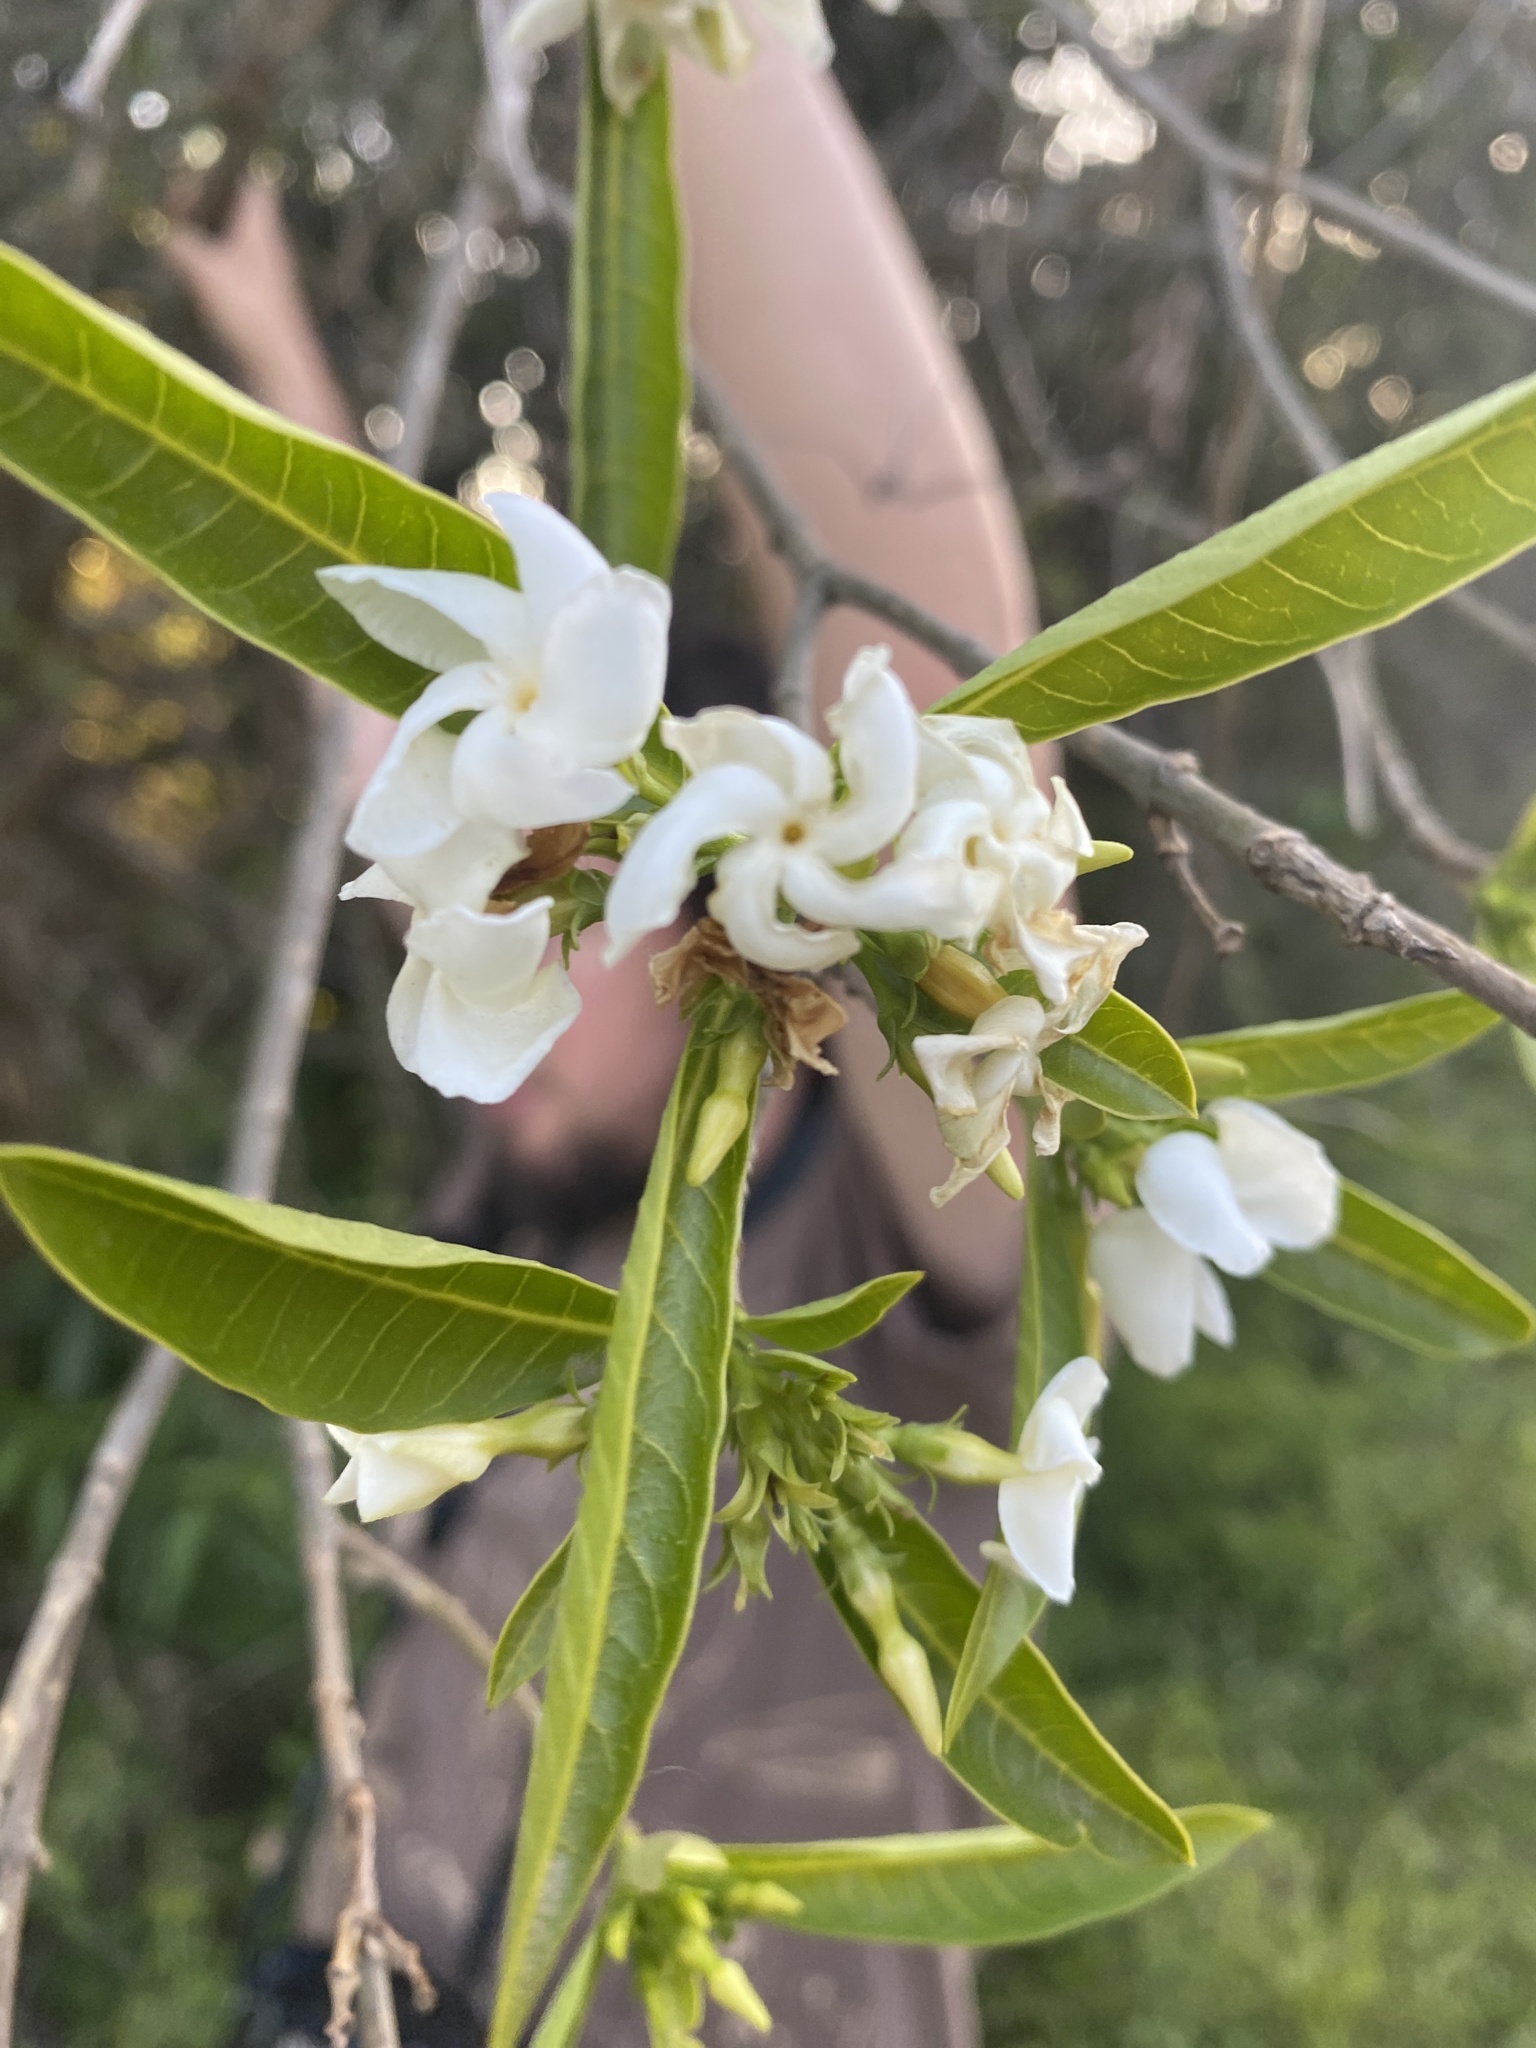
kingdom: Plantae
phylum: Tracheophyta
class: Magnoliopsida
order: Gentianales
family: Apocynaceae
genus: Tabernaemontana
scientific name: Tabernaemontana catharinensis
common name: Pinwheel-flower
